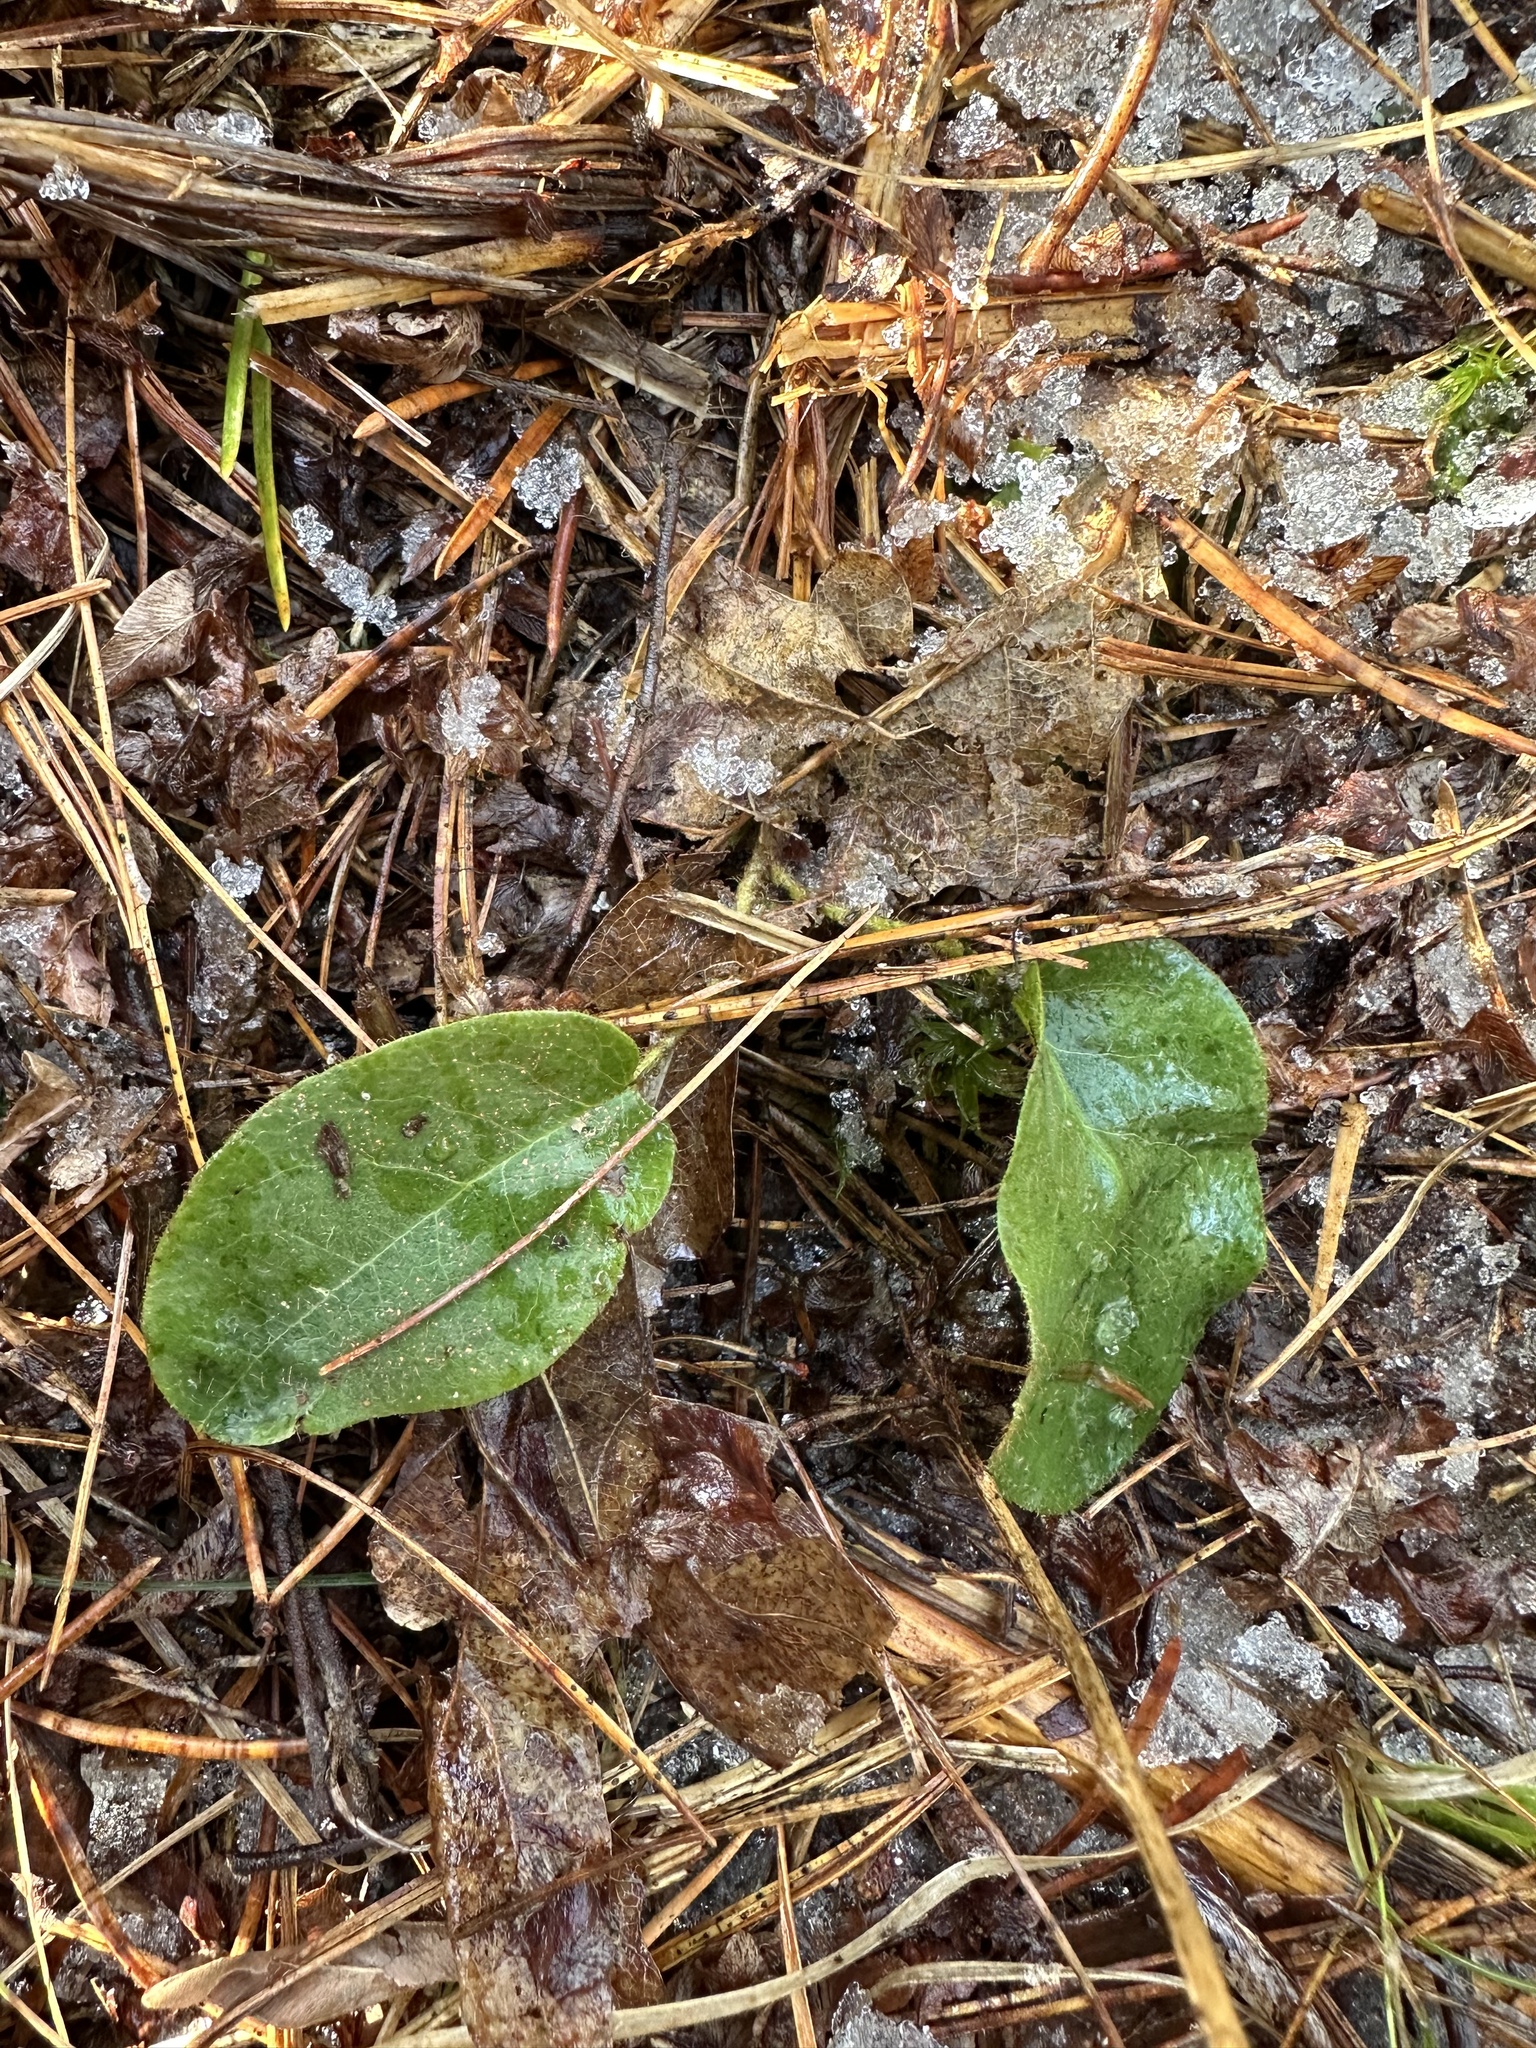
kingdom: Plantae
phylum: Tracheophyta
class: Magnoliopsida
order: Ericales
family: Ericaceae
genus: Epigaea
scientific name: Epigaea repens
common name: Gravelroot
